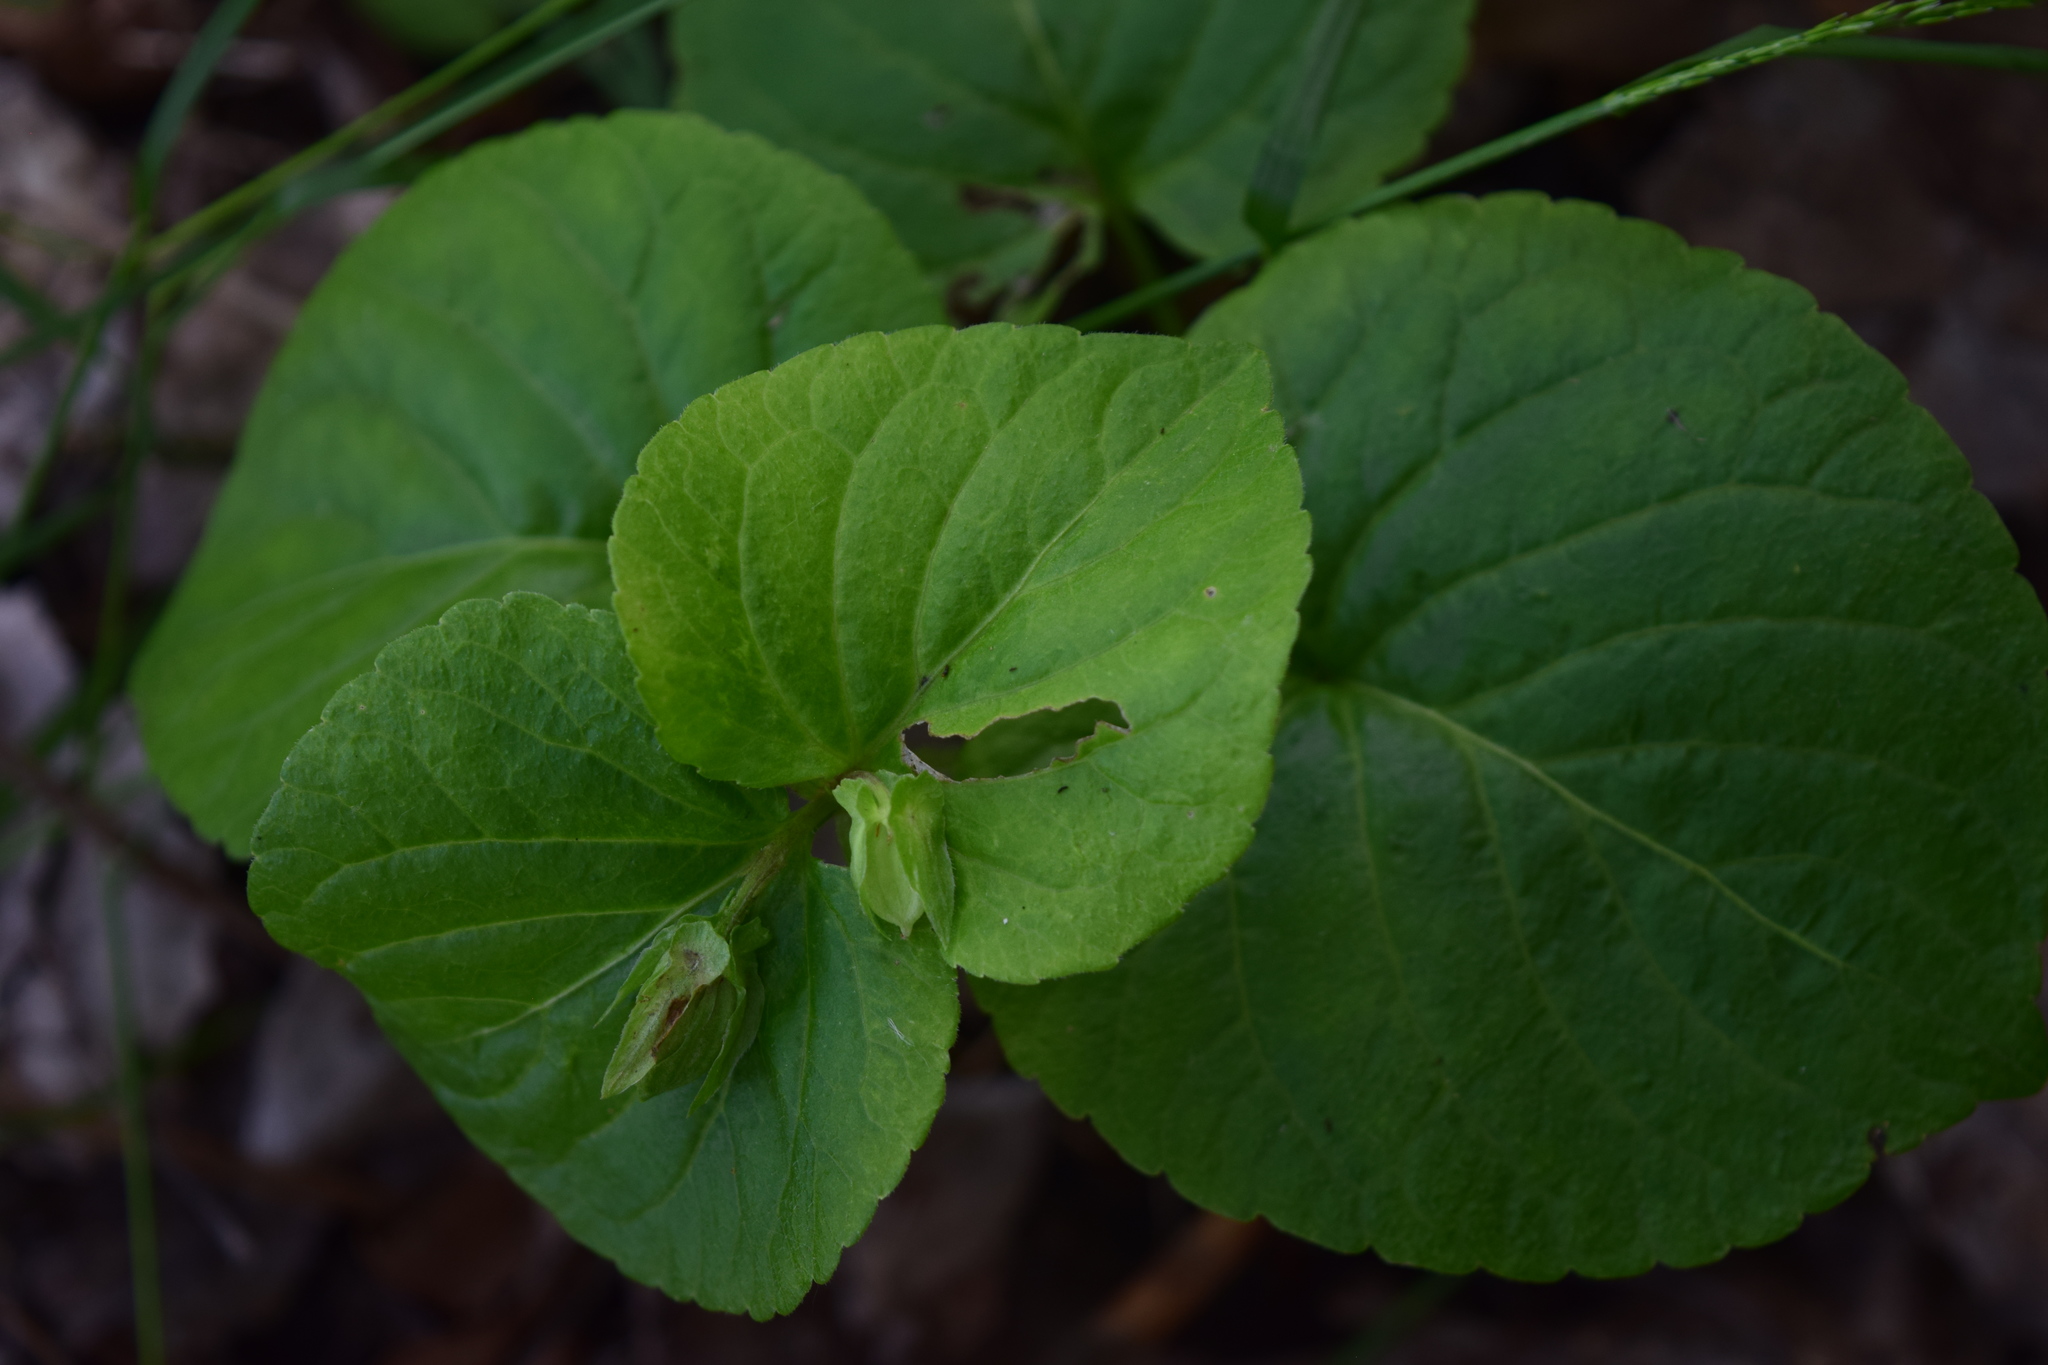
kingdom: Plantae
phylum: Tracheophyta
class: Magnoliopsida
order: Malpighiales
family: Violaceae
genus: Viola
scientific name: Viola mirabilis
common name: Wonder violet
